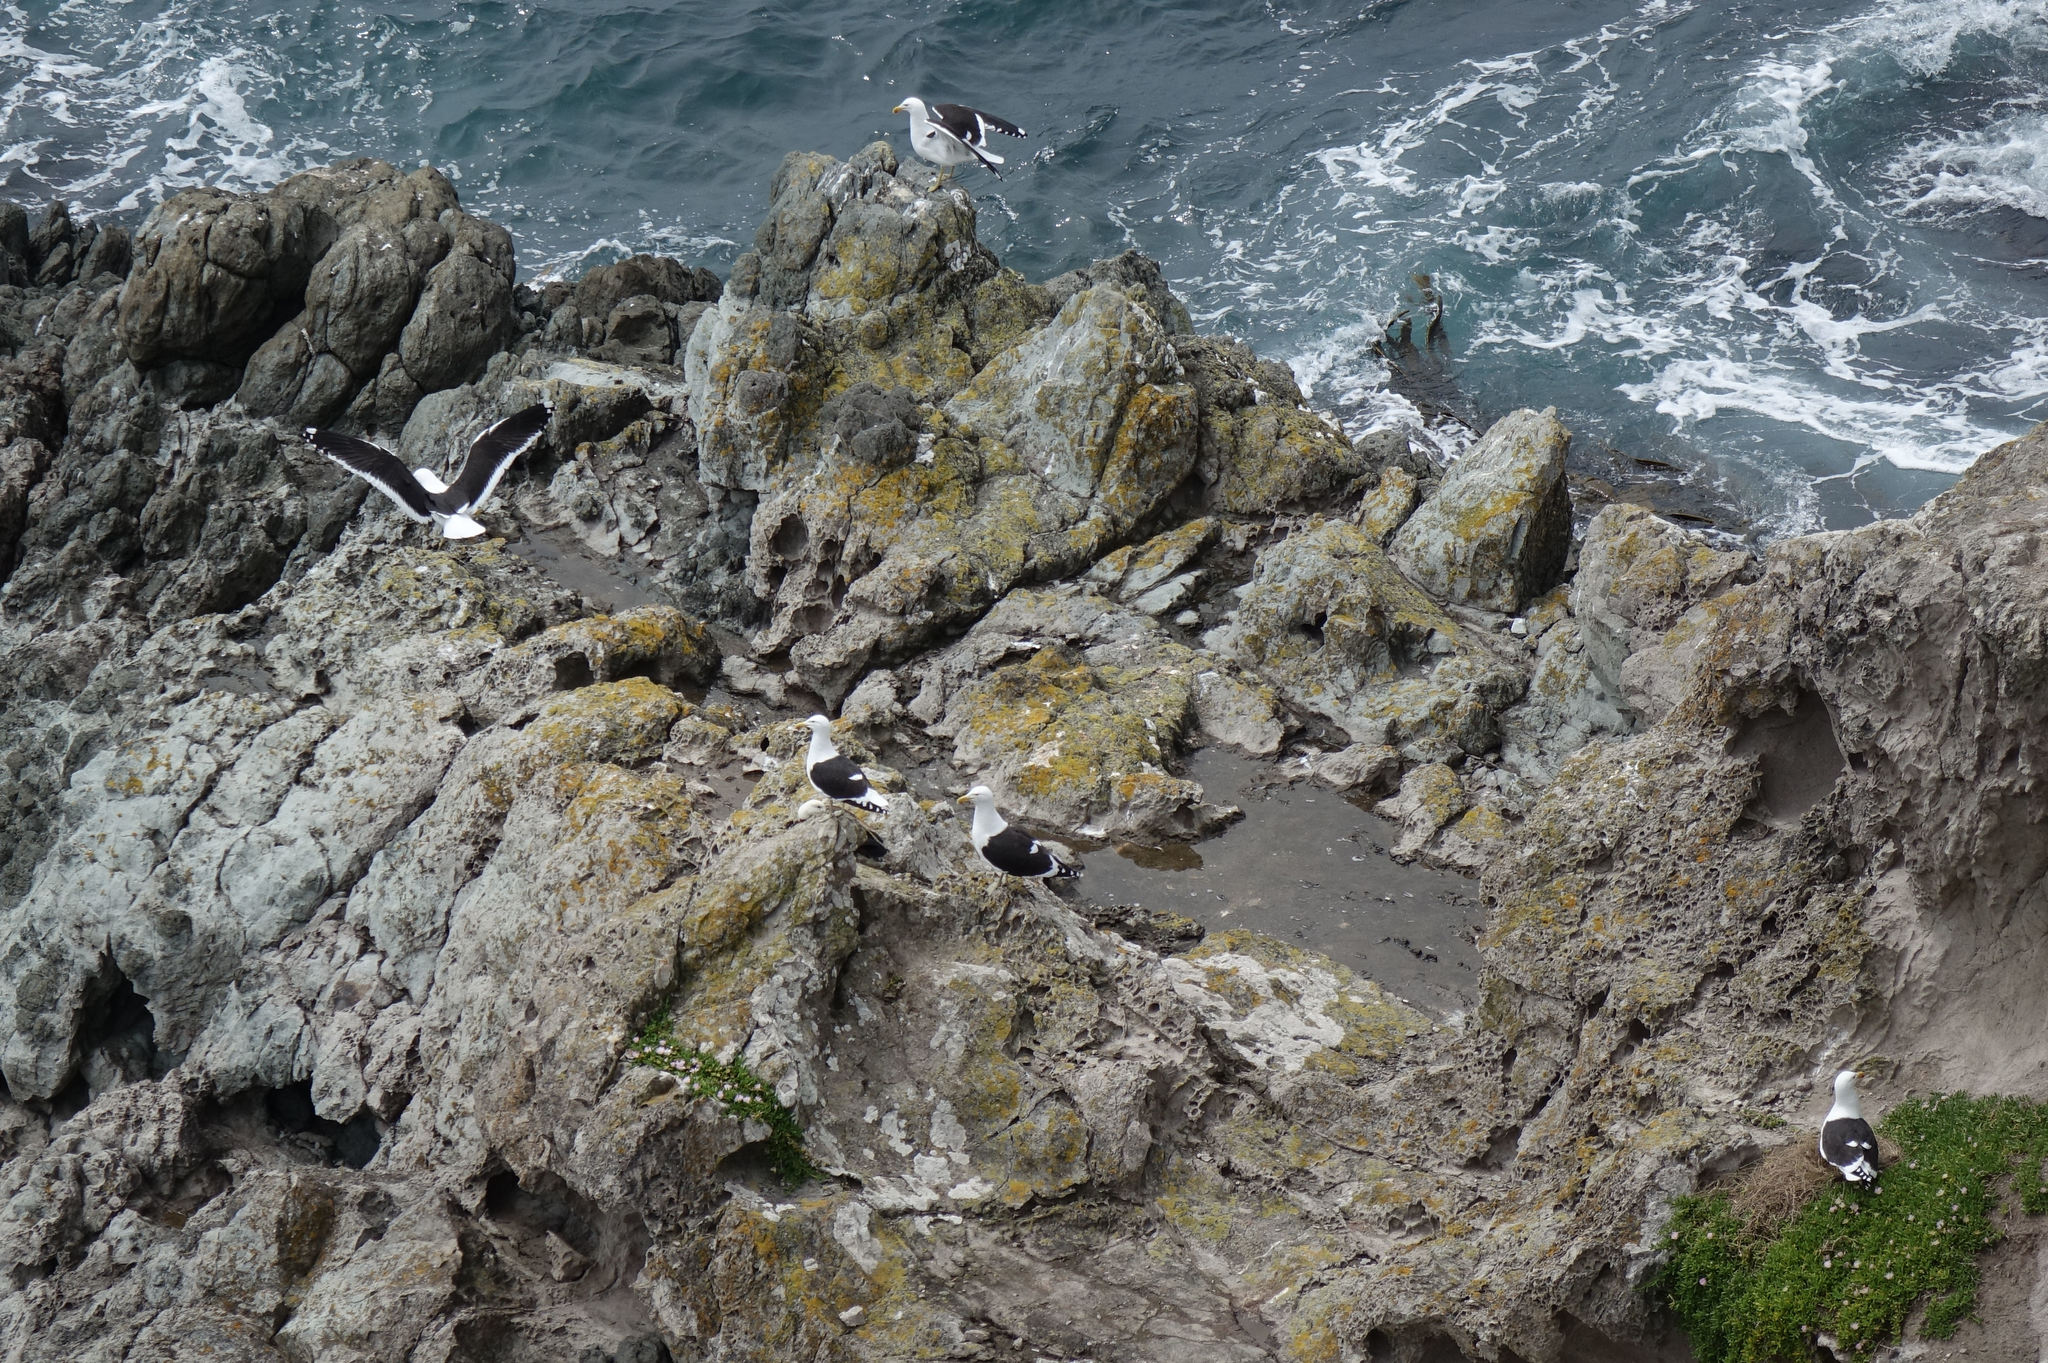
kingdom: Animalia
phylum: Chordata
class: Aves
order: Charadriiformes
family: Laridae
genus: Larus
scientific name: Larus dominicanus
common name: Kelp gull
